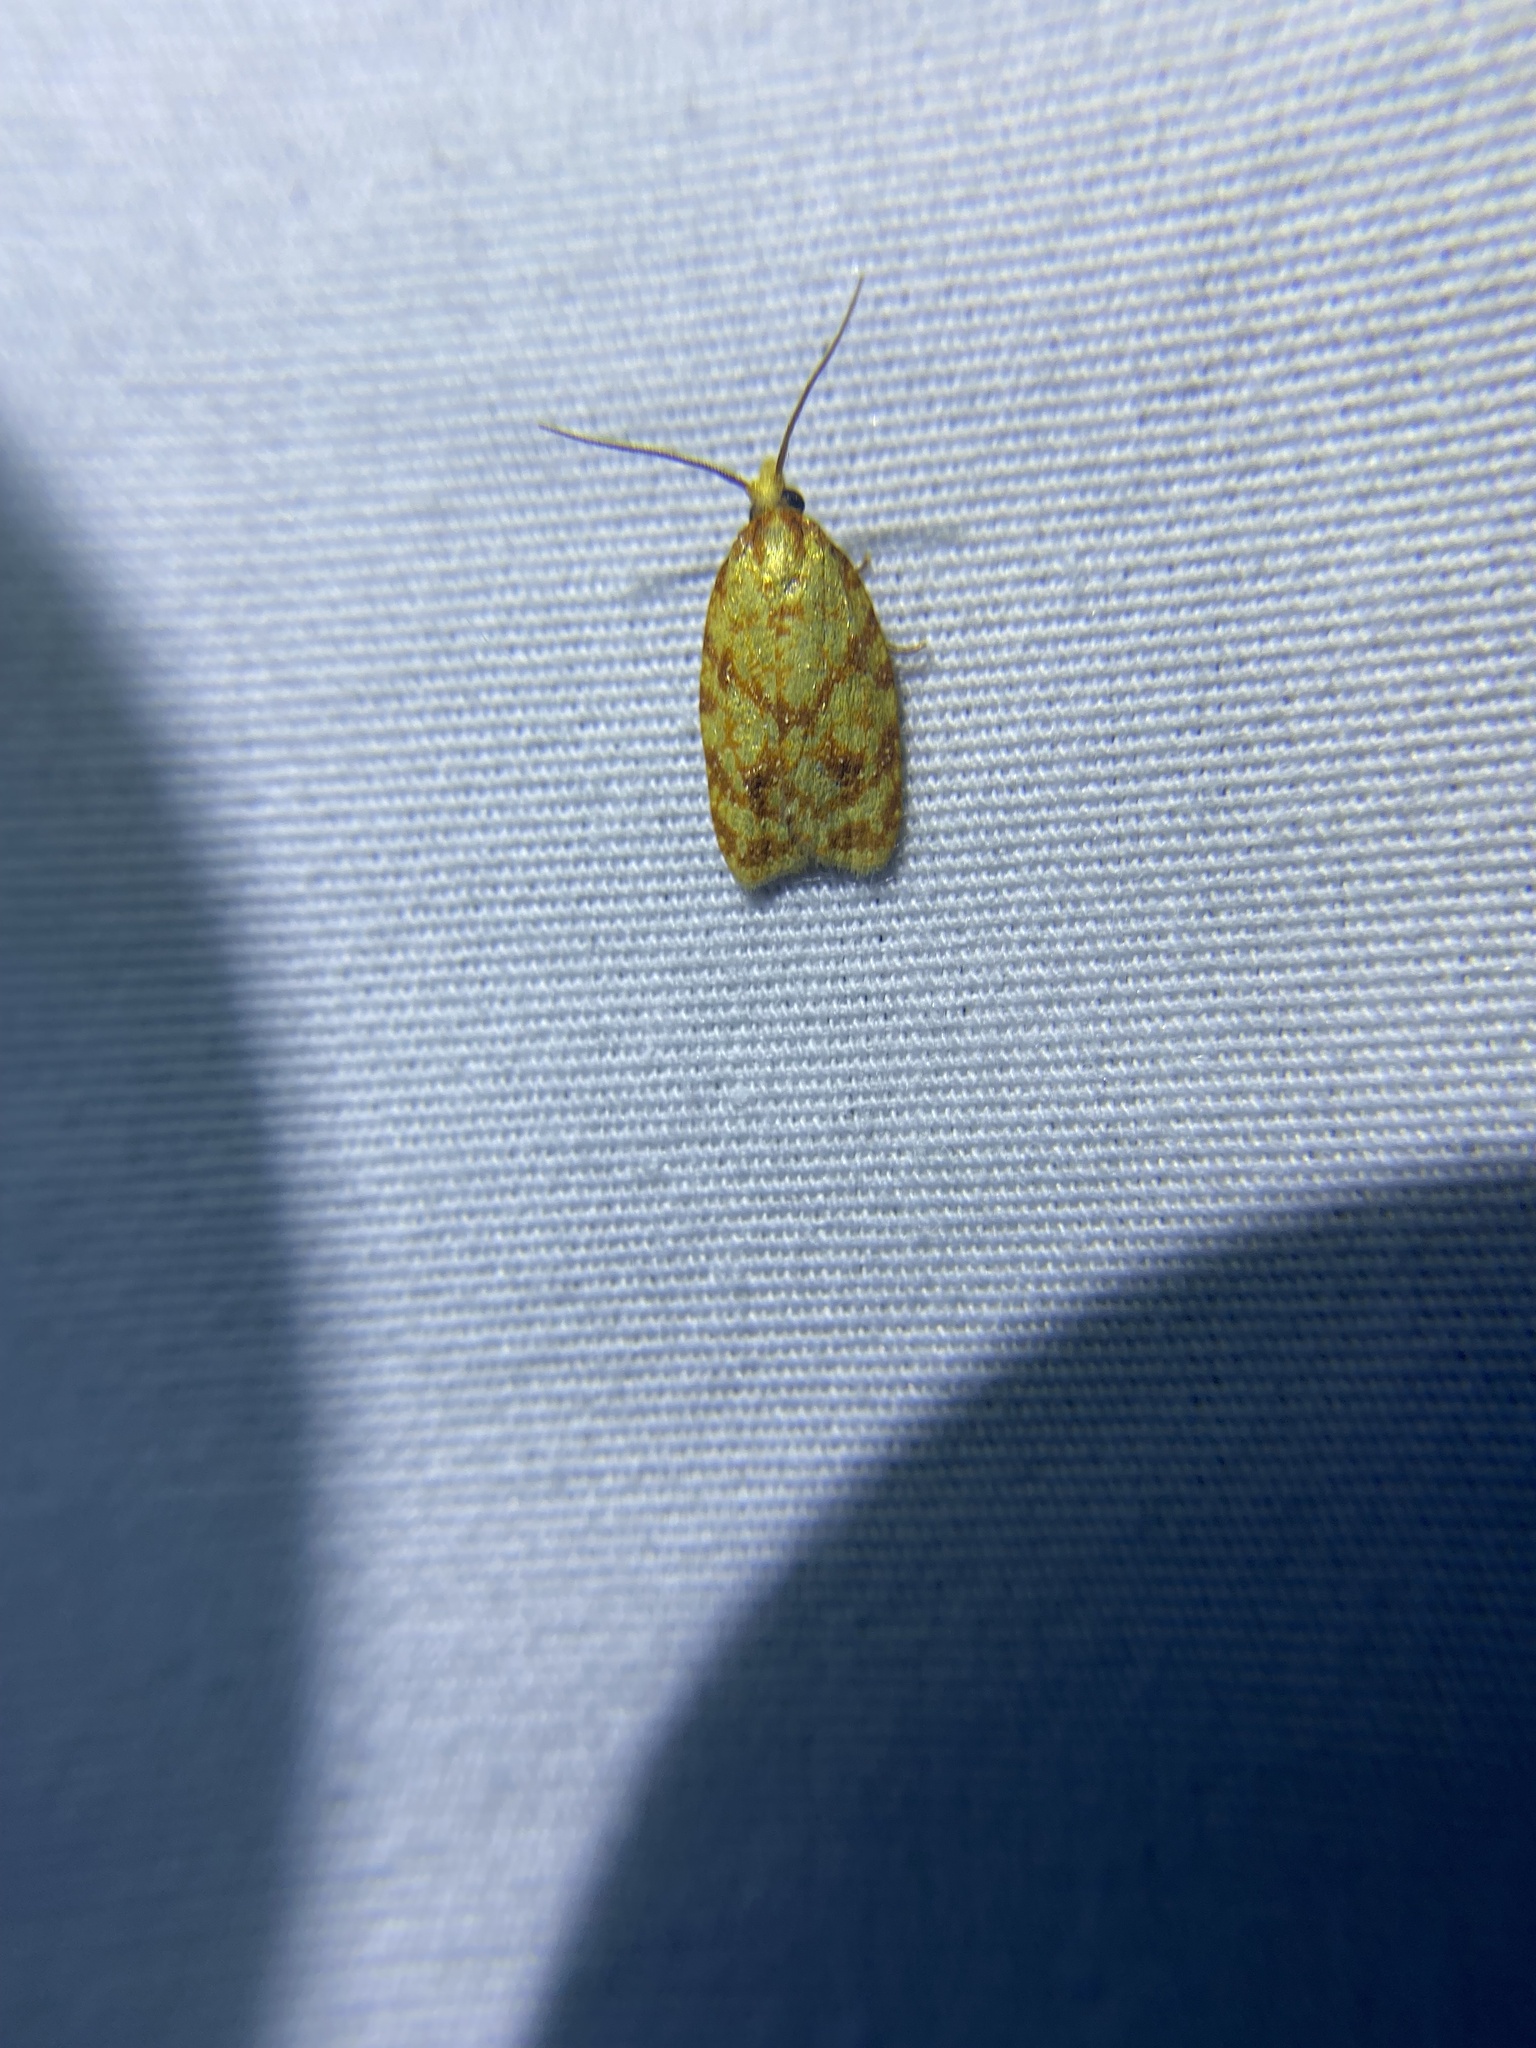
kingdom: Animalia
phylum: Arthropoda
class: Insecta
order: Lepidoptera
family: Tortricidae
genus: Sparganothis
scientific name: Sparganothis sulfureana
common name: Sparganothis fruitworm moth
